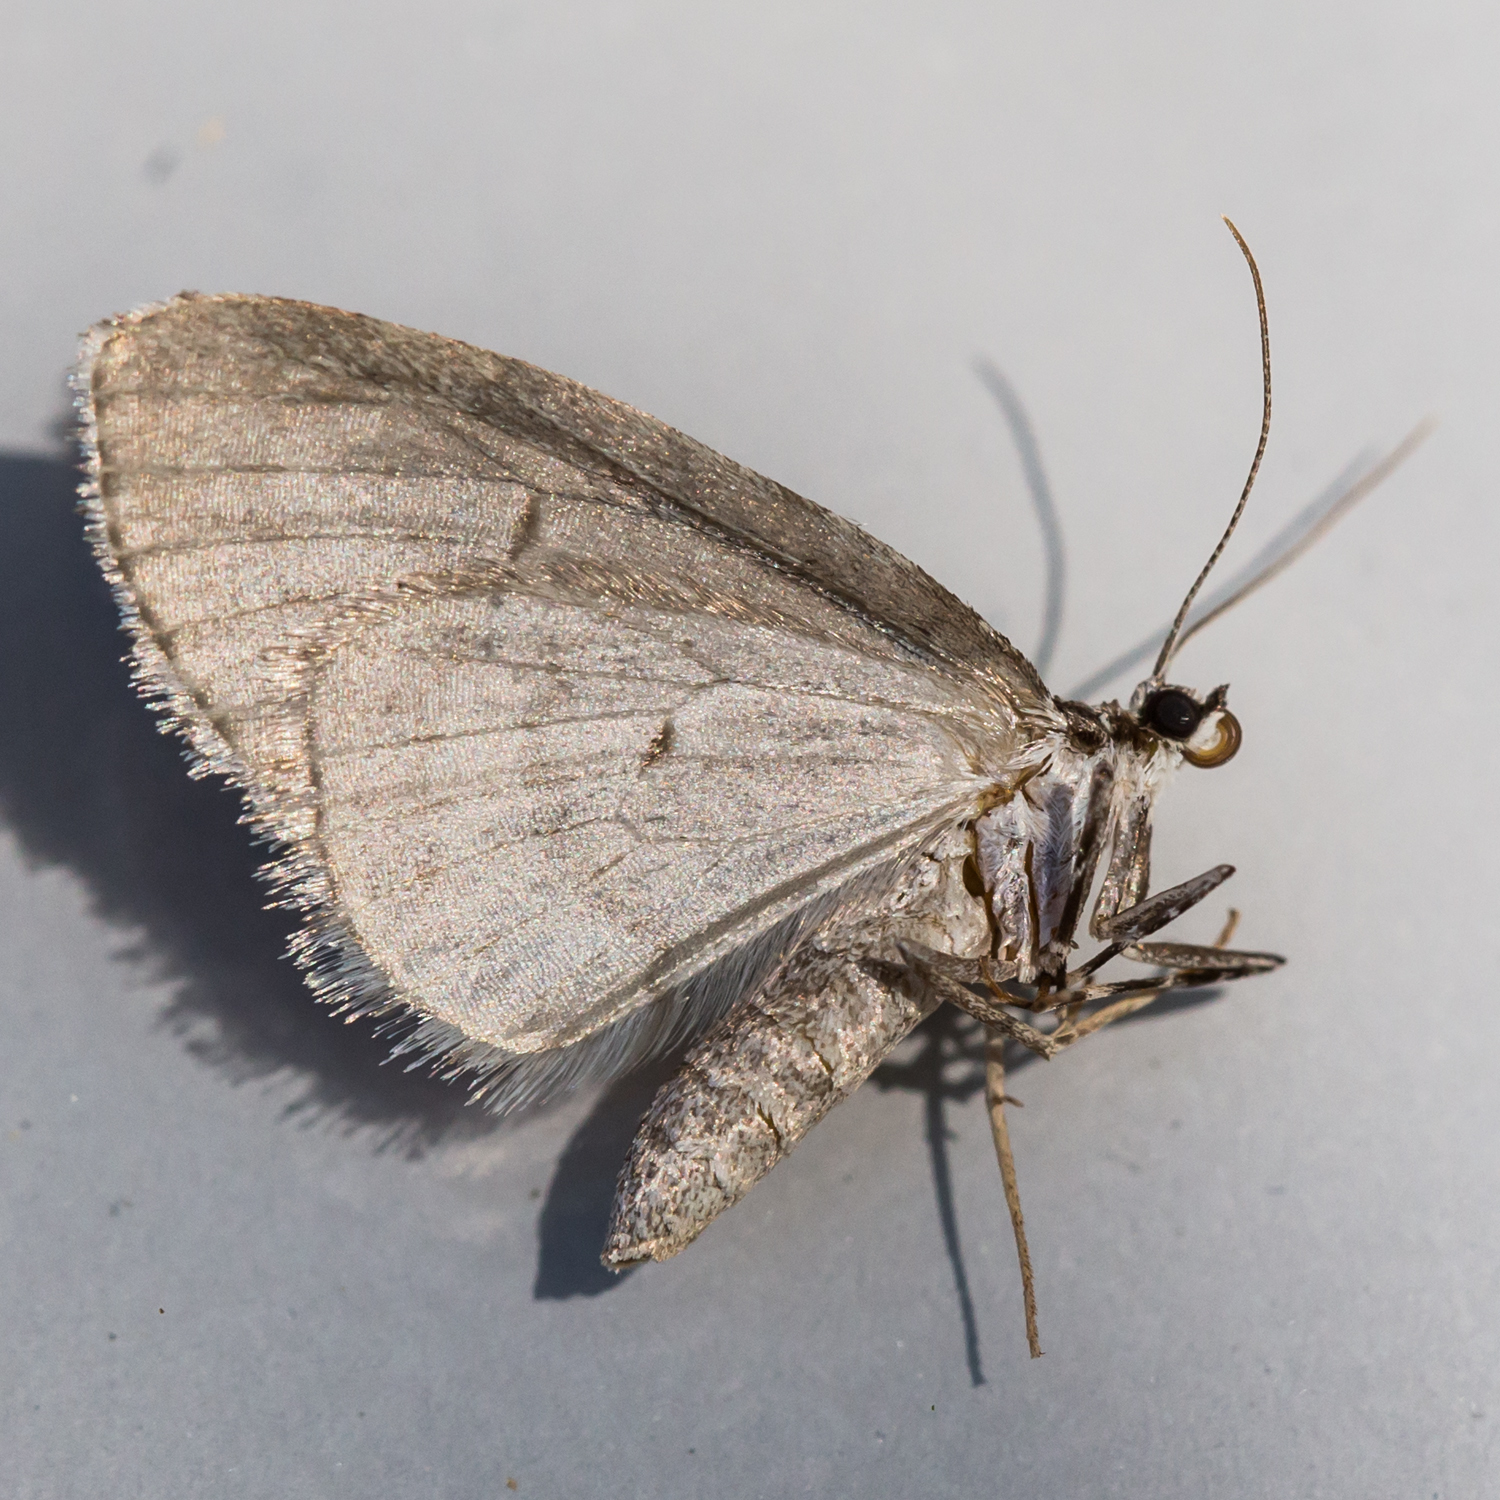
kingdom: Animalia
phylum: Arthropoda
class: Insecta
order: Lepidoptera
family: Geometridae
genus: Cladara
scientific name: Cladara limitaria
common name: Mottled gray carpet
